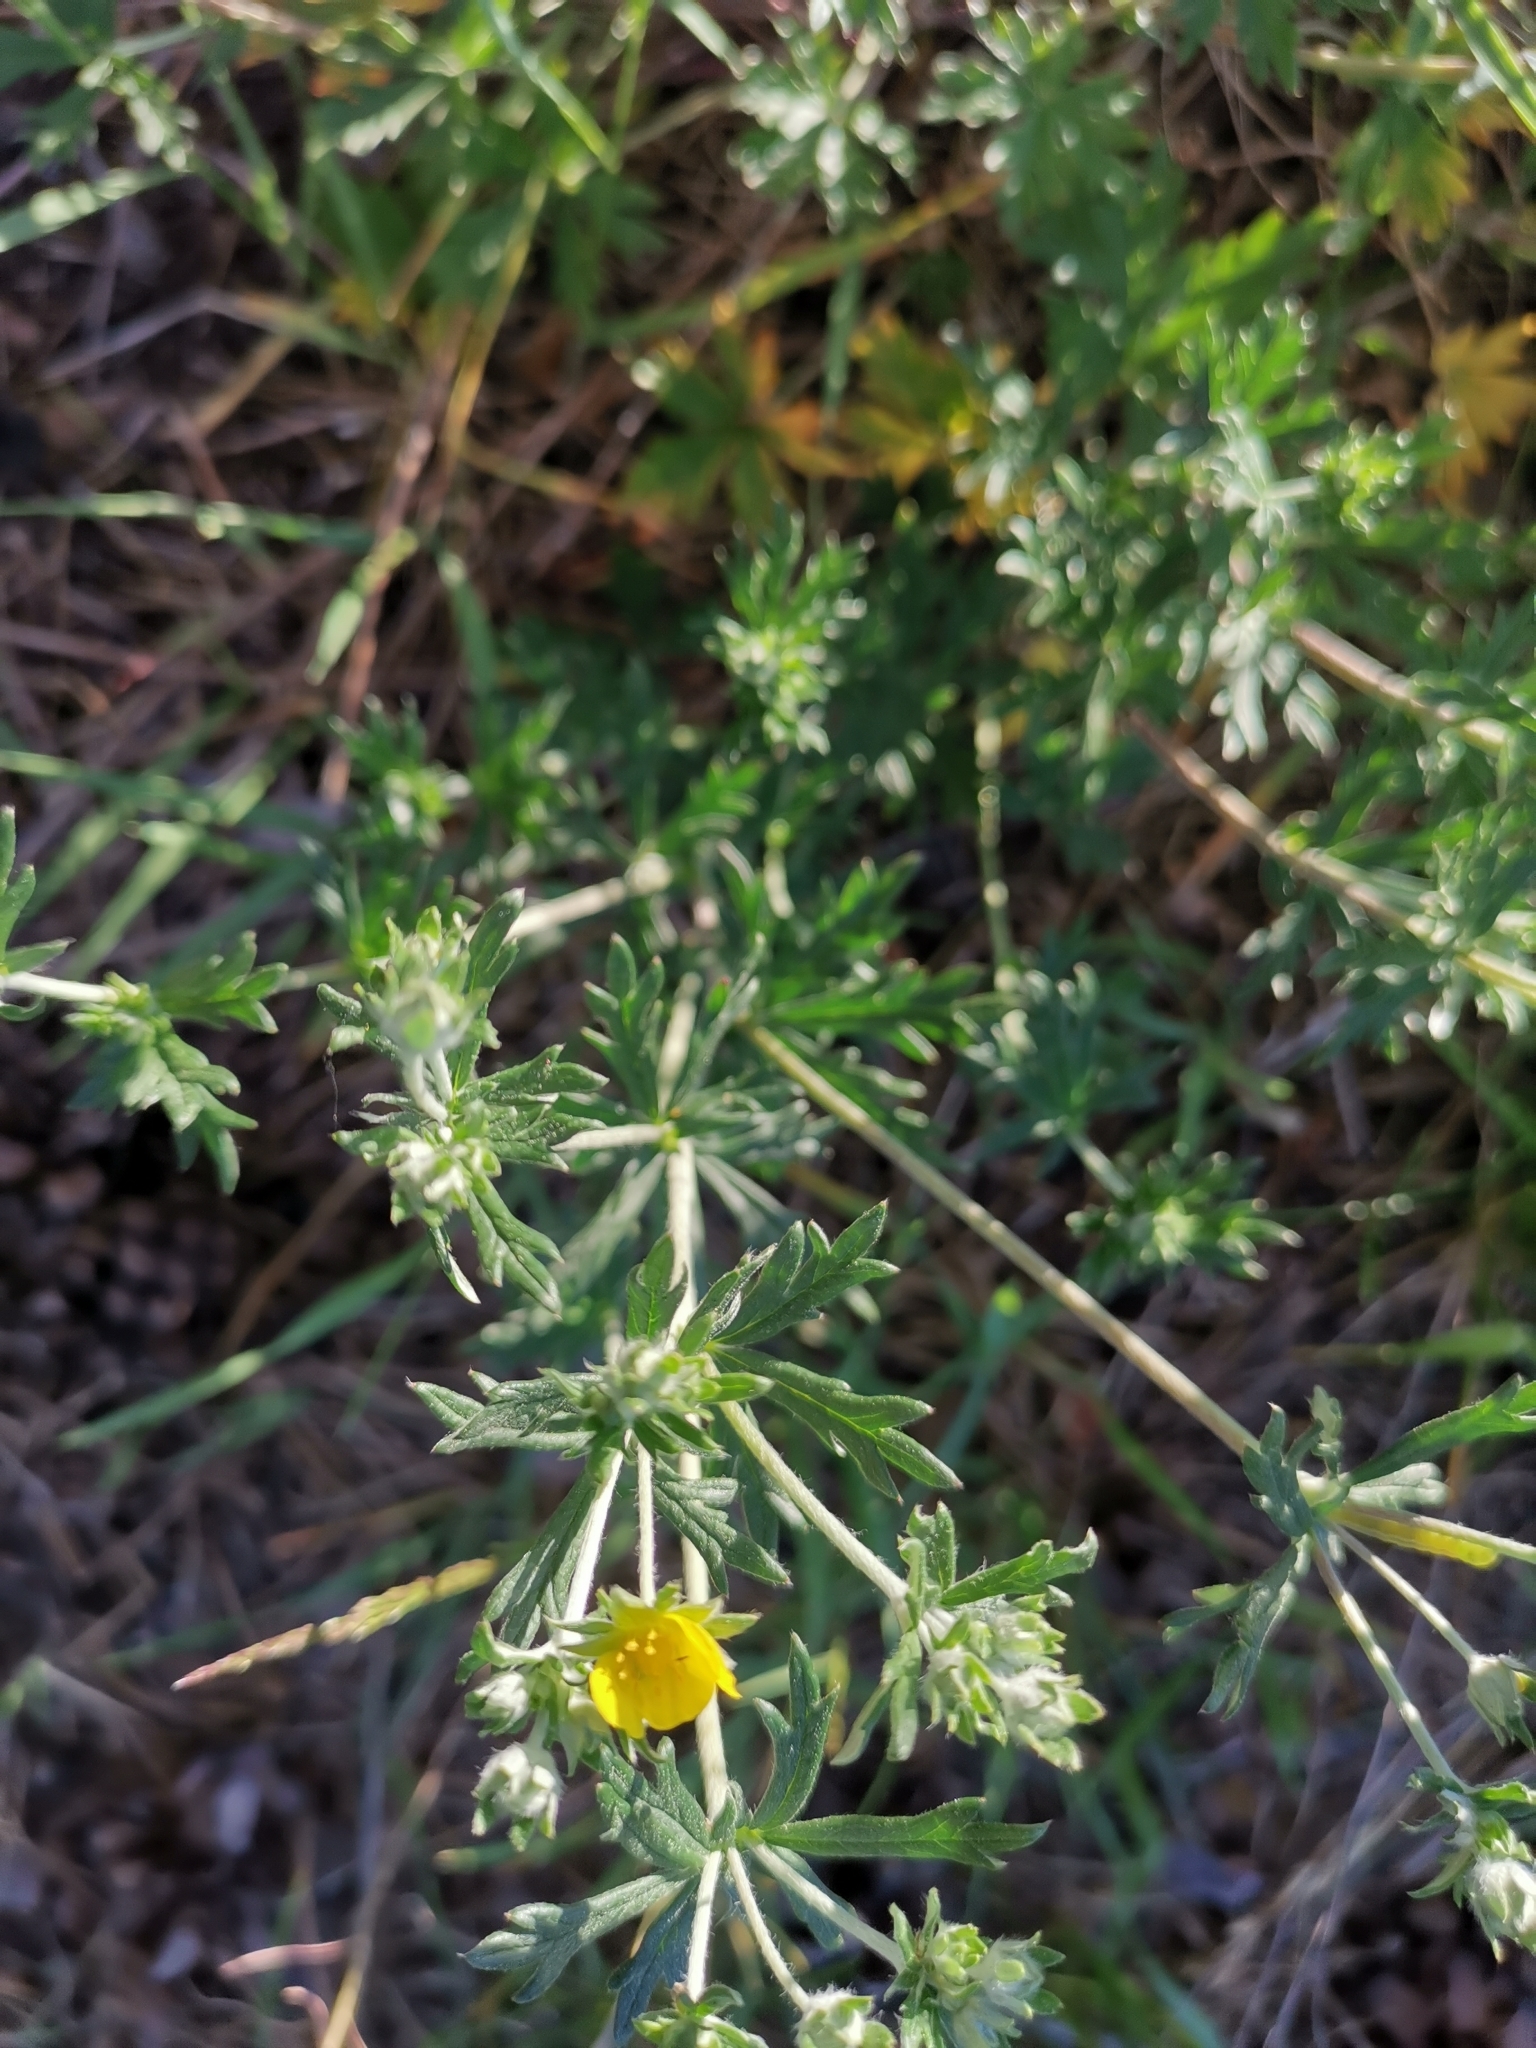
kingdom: Plantae
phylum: Tracheophyta
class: Magnoliopsida
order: Rosales
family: Rosaceae
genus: Potentilla
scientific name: Potentilla argentea
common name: Hoary cinquefoil
